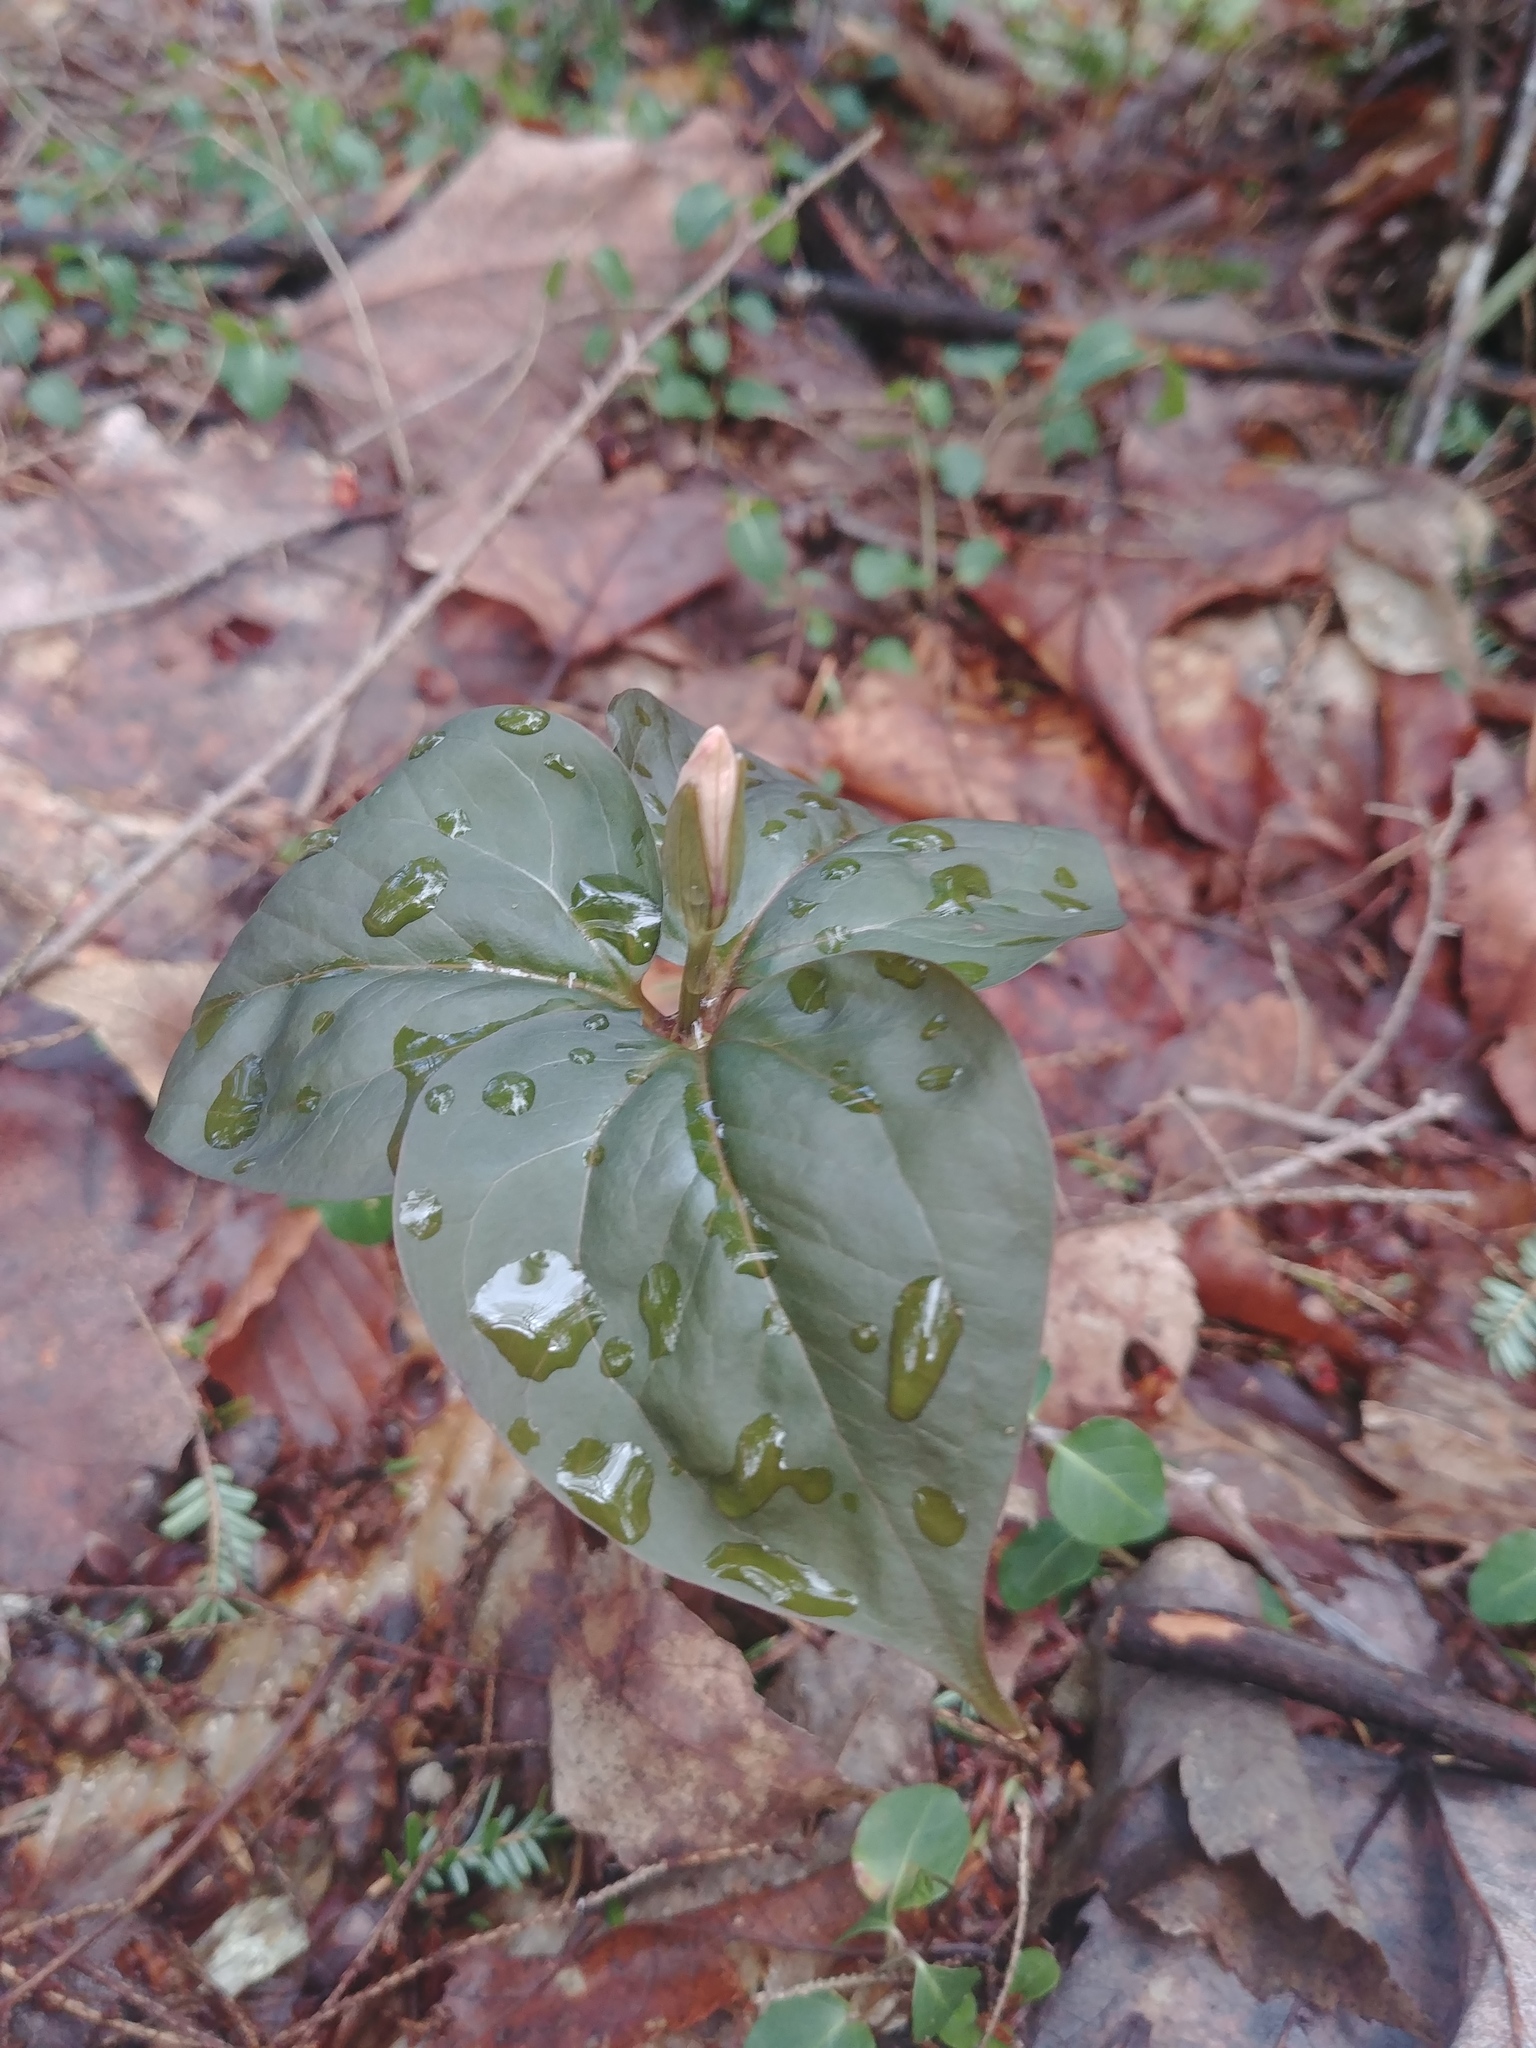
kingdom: Plantae
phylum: Tracheophyta
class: Liliopsida
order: Liliales
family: Melanthiaceae
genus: Trillium
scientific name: Trillium undulatum
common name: Paint trillium
